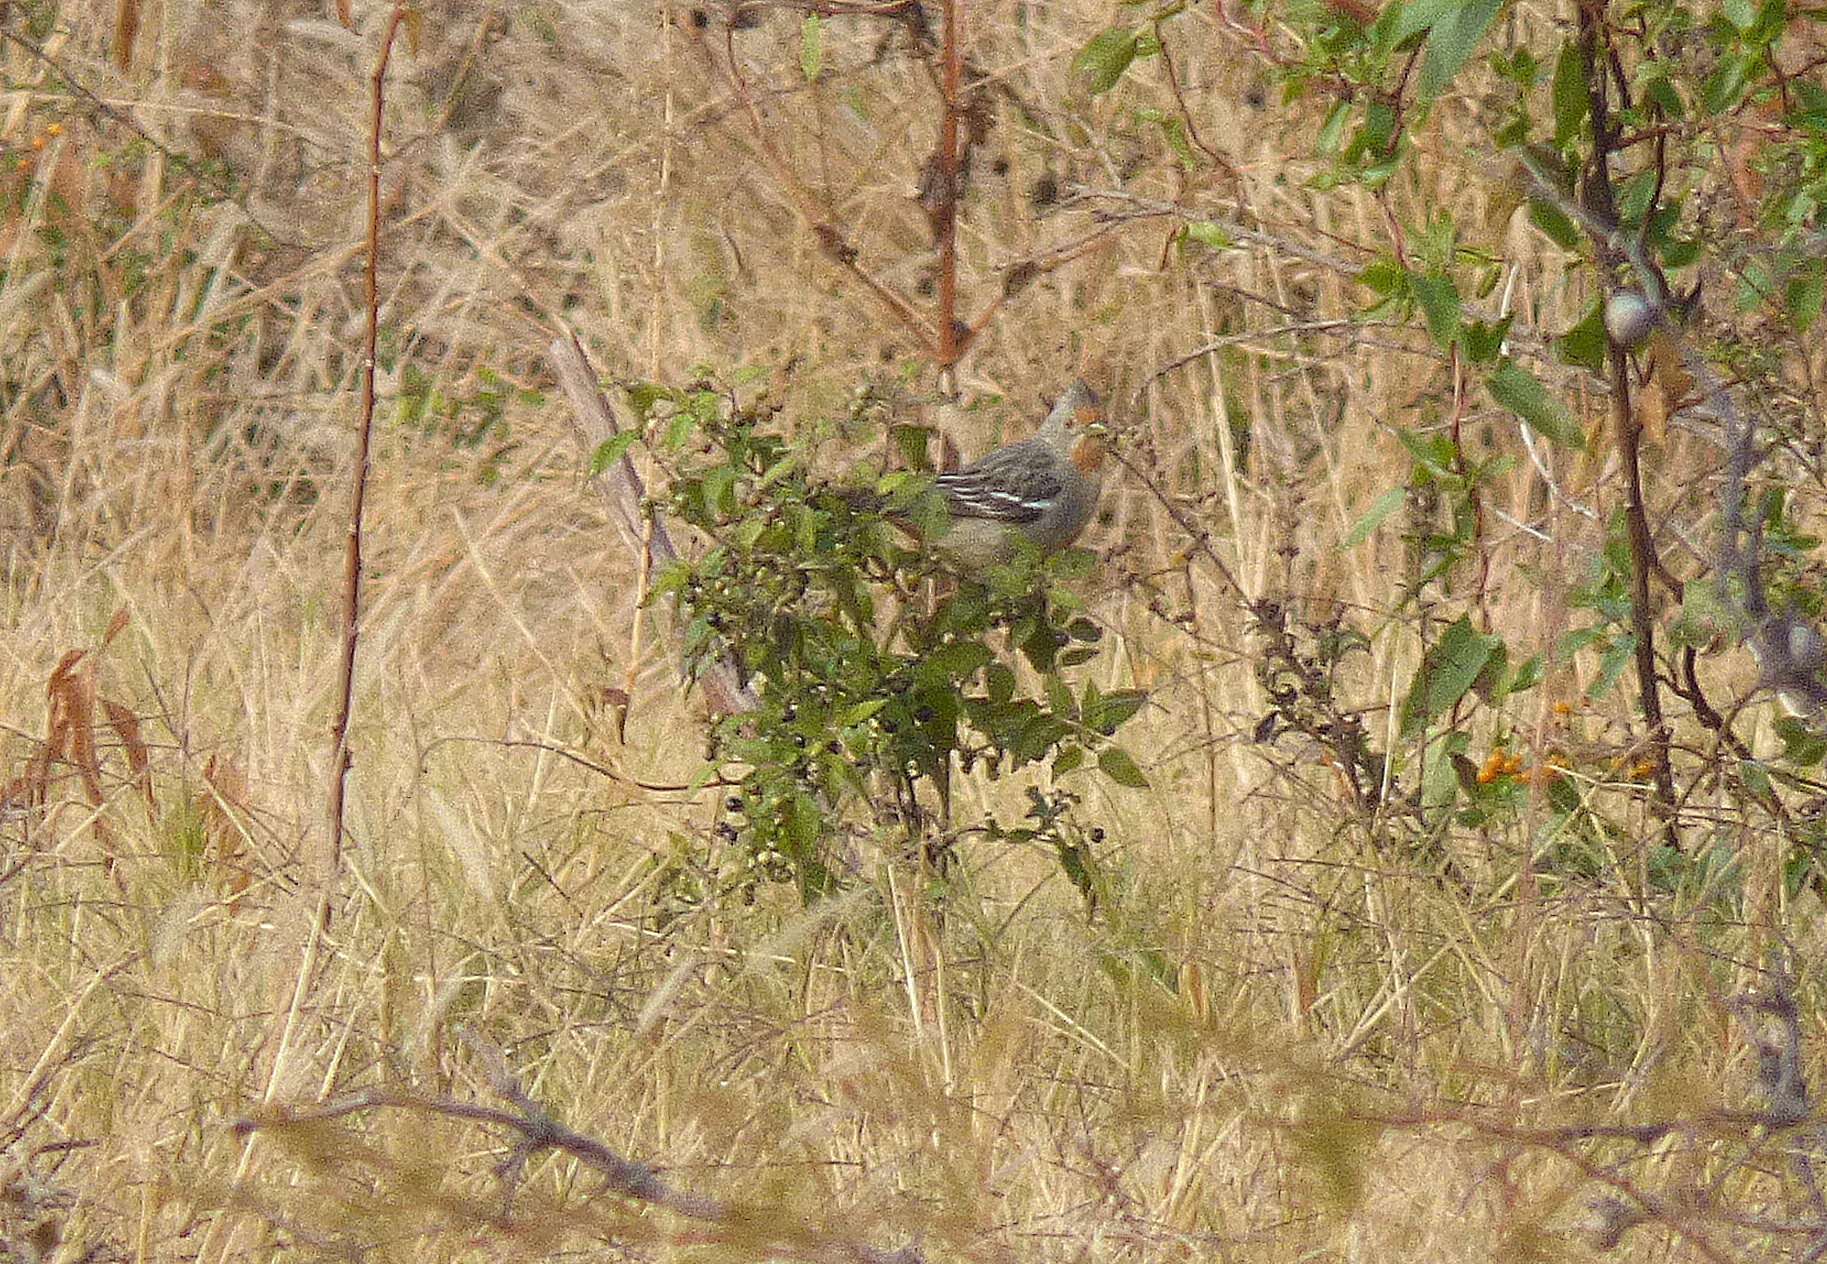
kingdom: Animalia
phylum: Chordata
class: Aves
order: Passeriformes
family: Cotingidae
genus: Phytotoma
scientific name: Phytotoma rutila
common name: White-tipped plantcutter
